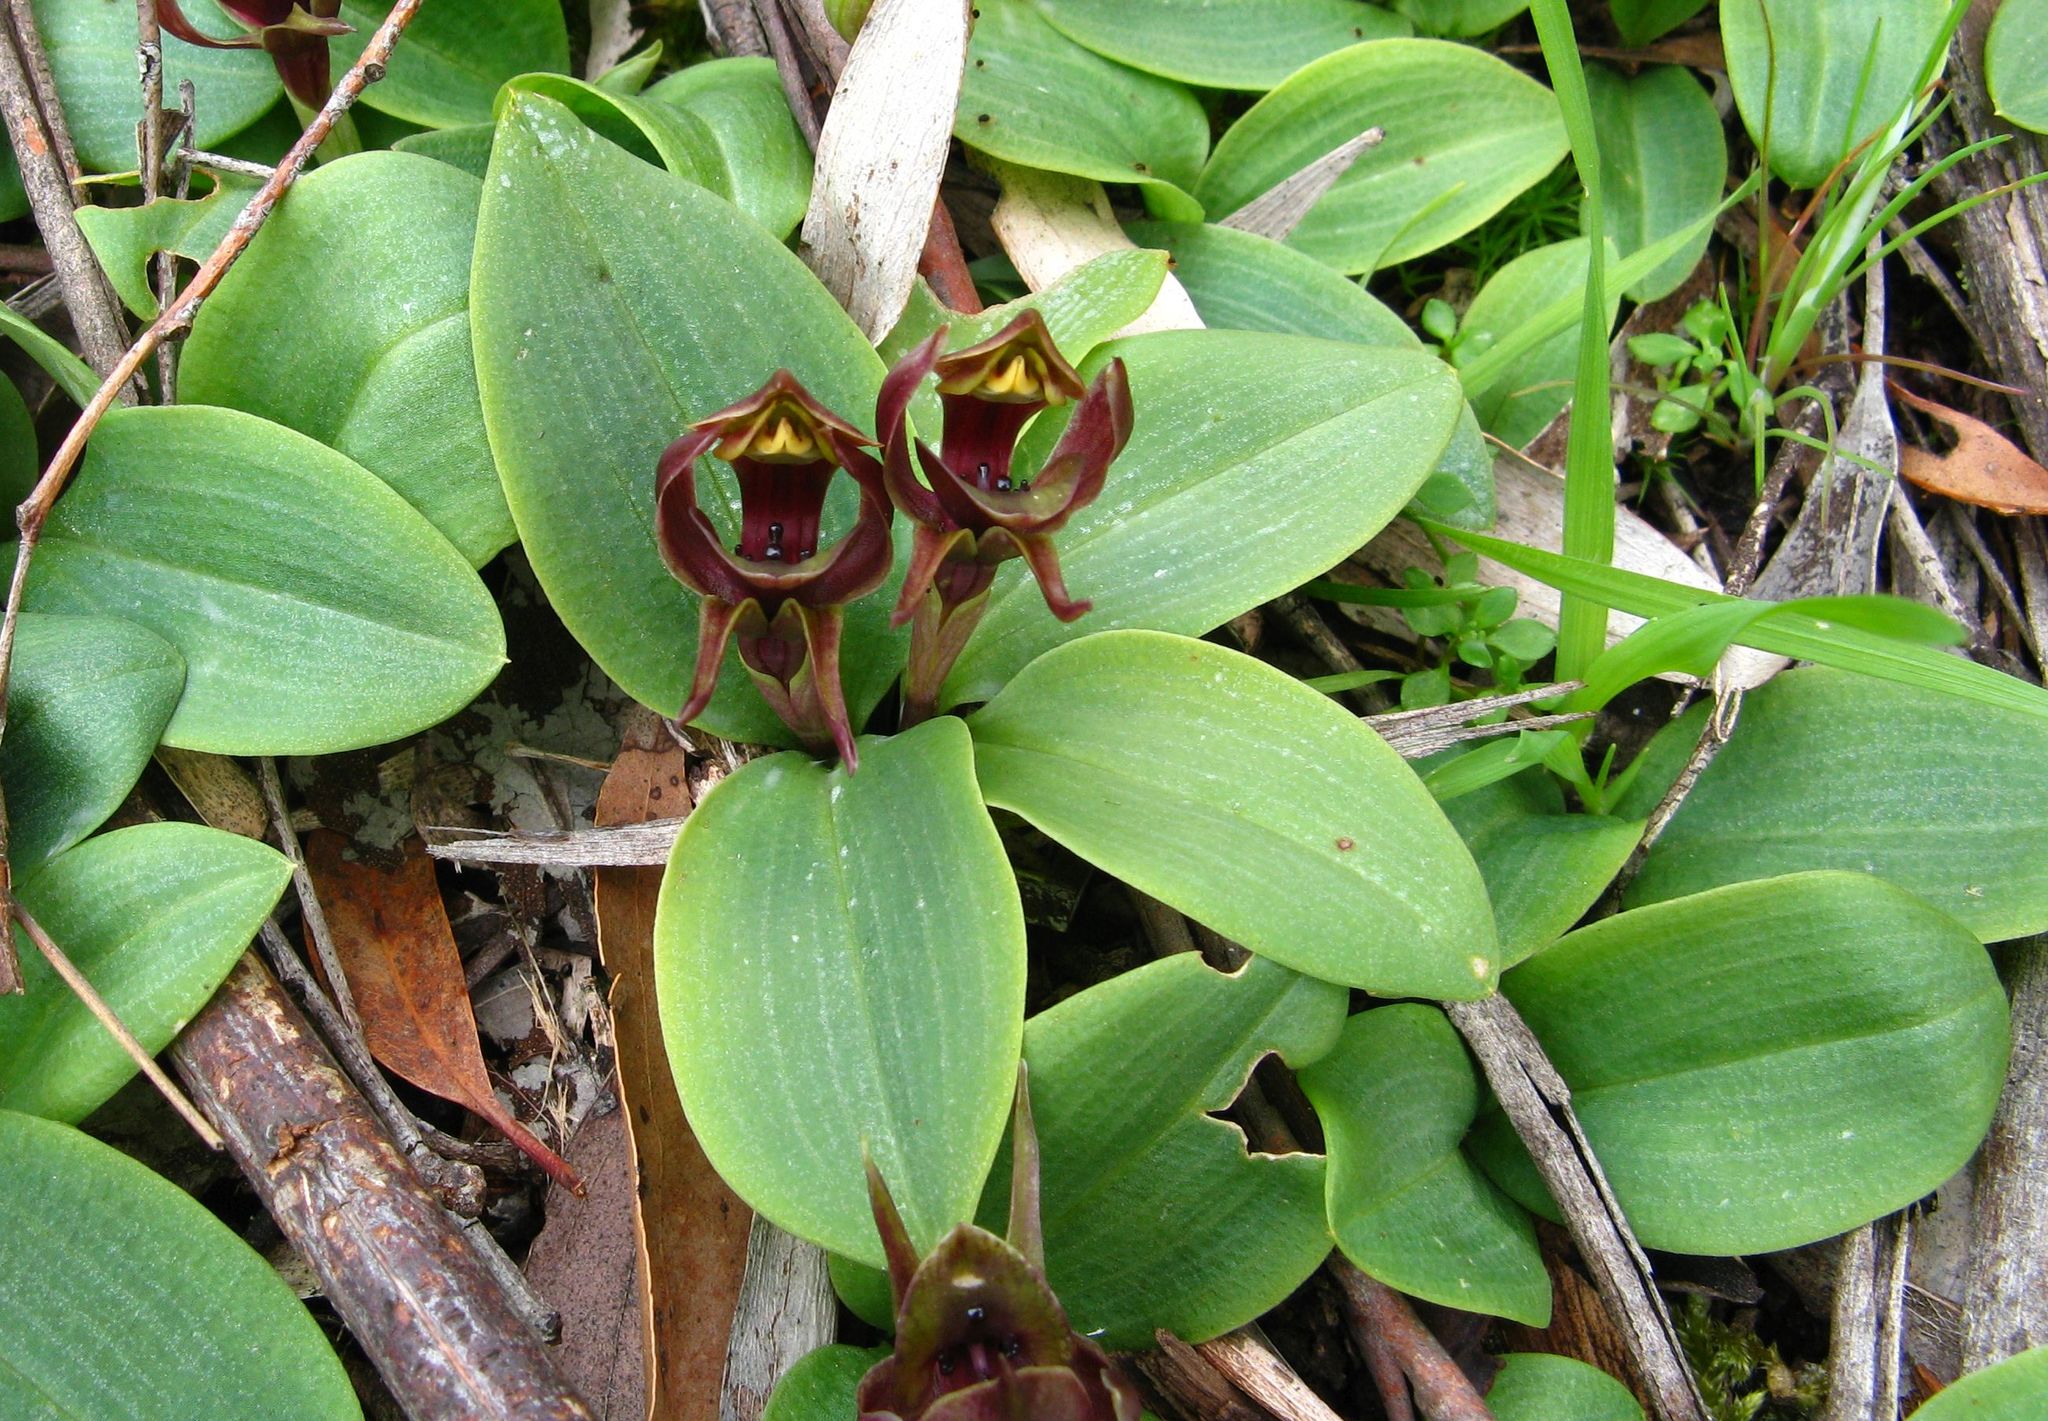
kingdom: Plantae
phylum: Tracheophyta
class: Liliopsida
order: Asparagales
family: Orchidaceae
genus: Chiloglottis
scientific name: Chiloglottis valida
